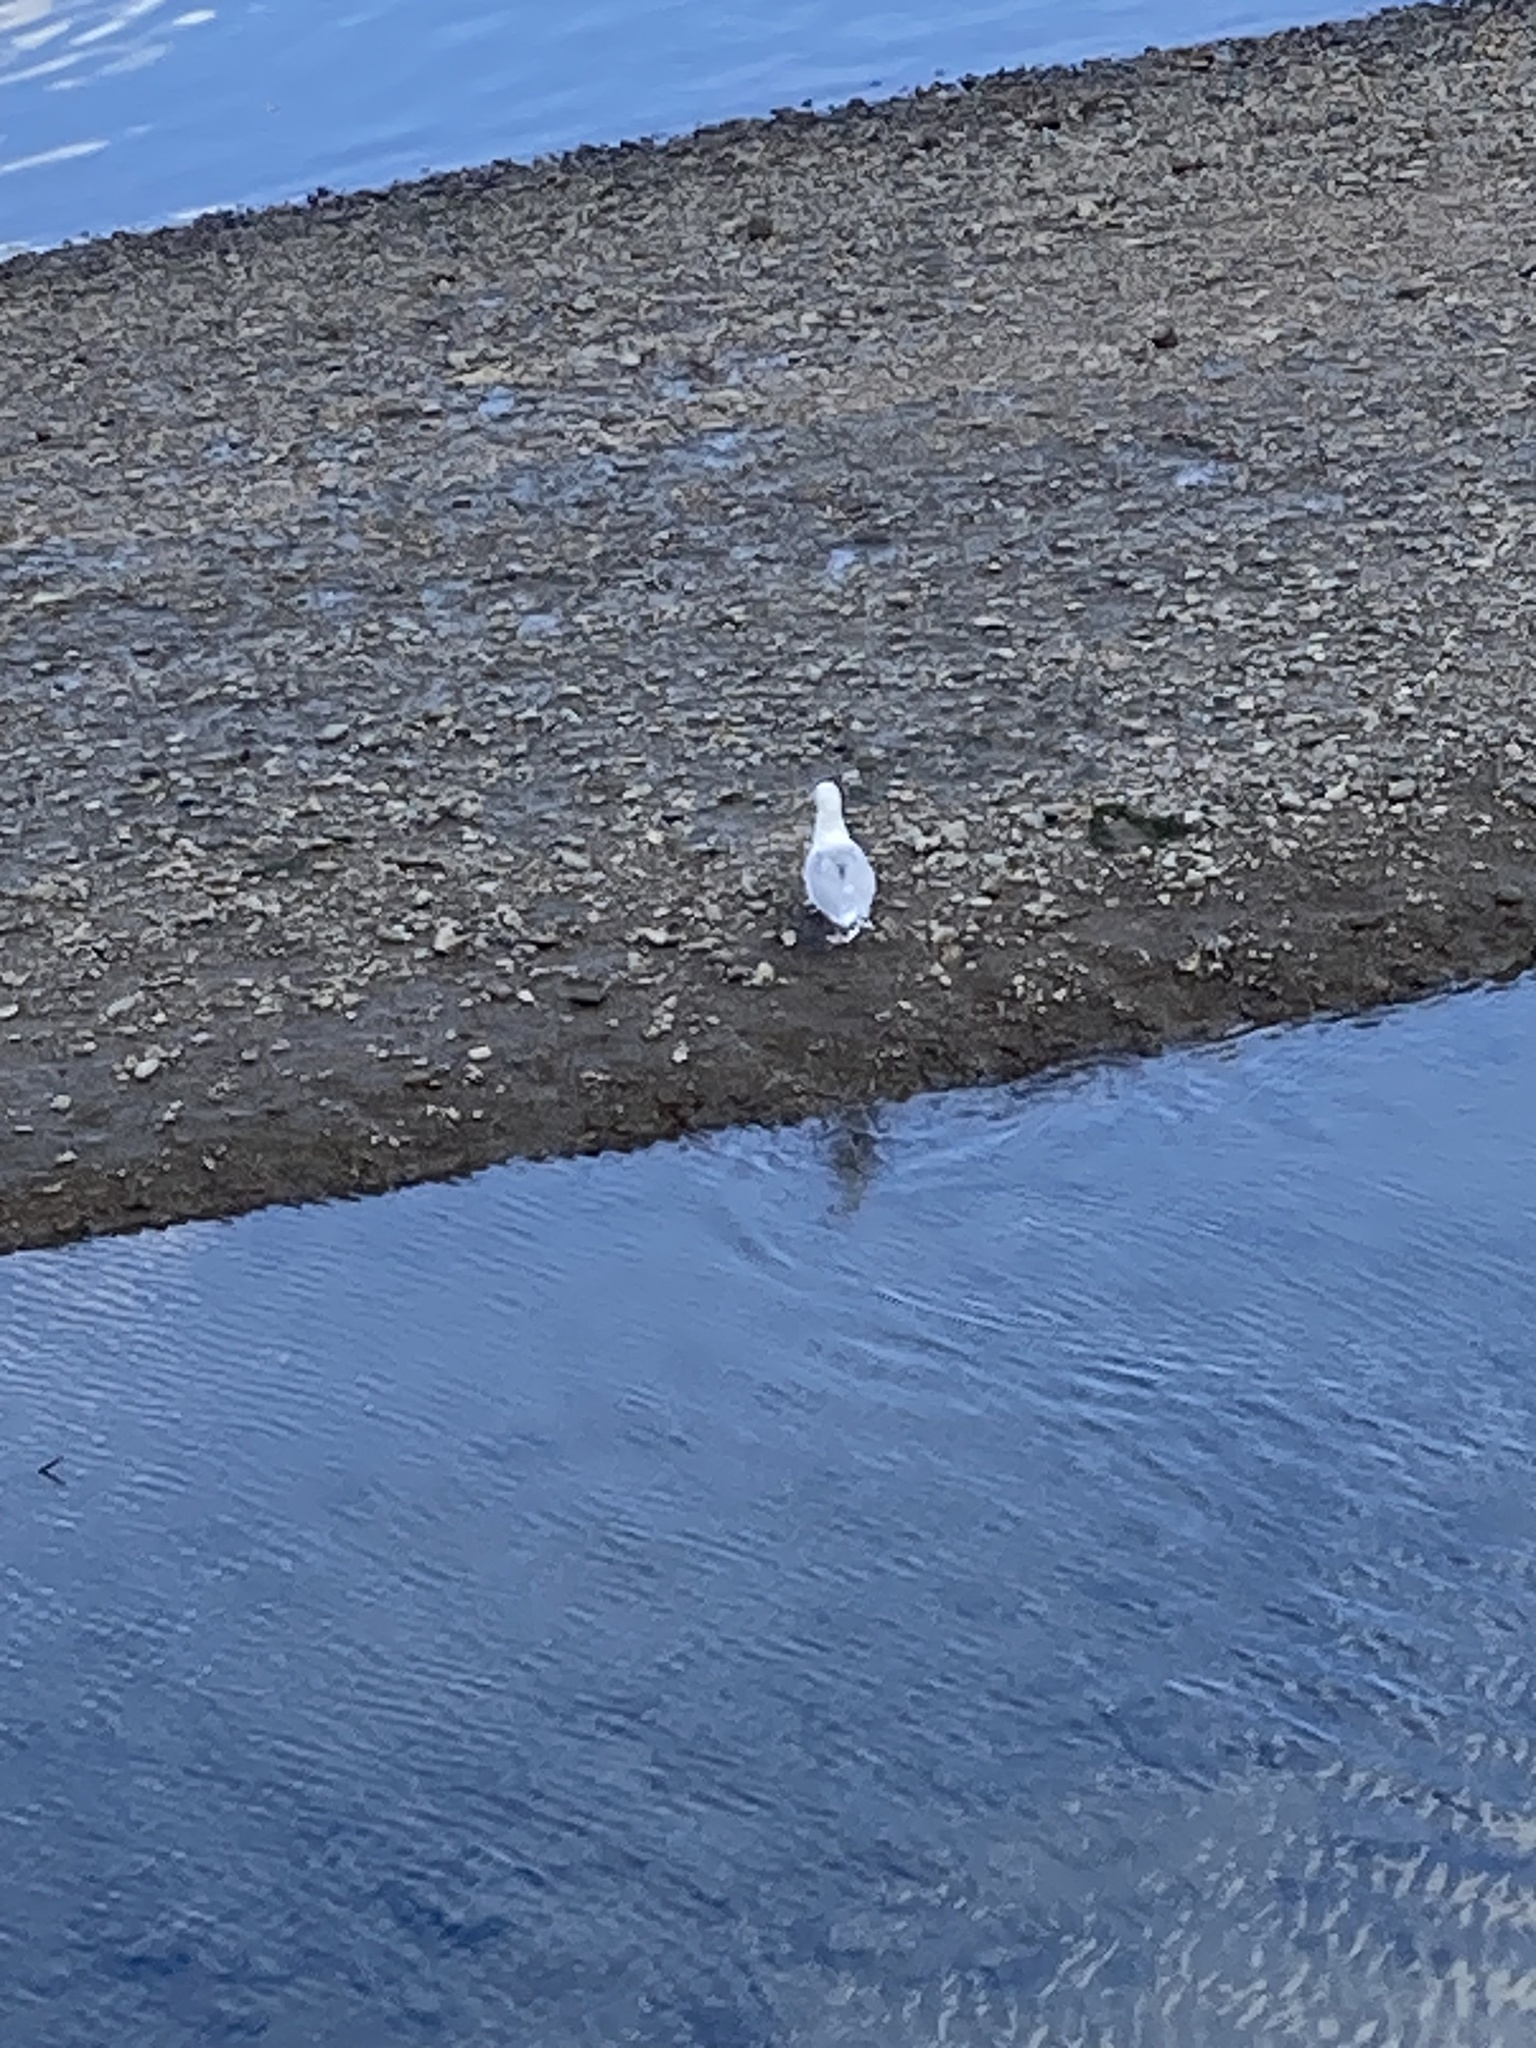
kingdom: Animalia
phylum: Chordata
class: Aves
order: Charadriiformes
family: Laridae
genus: Chroicocephalus
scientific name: Chroicocephalus ridibundus
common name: Black-headed gull
